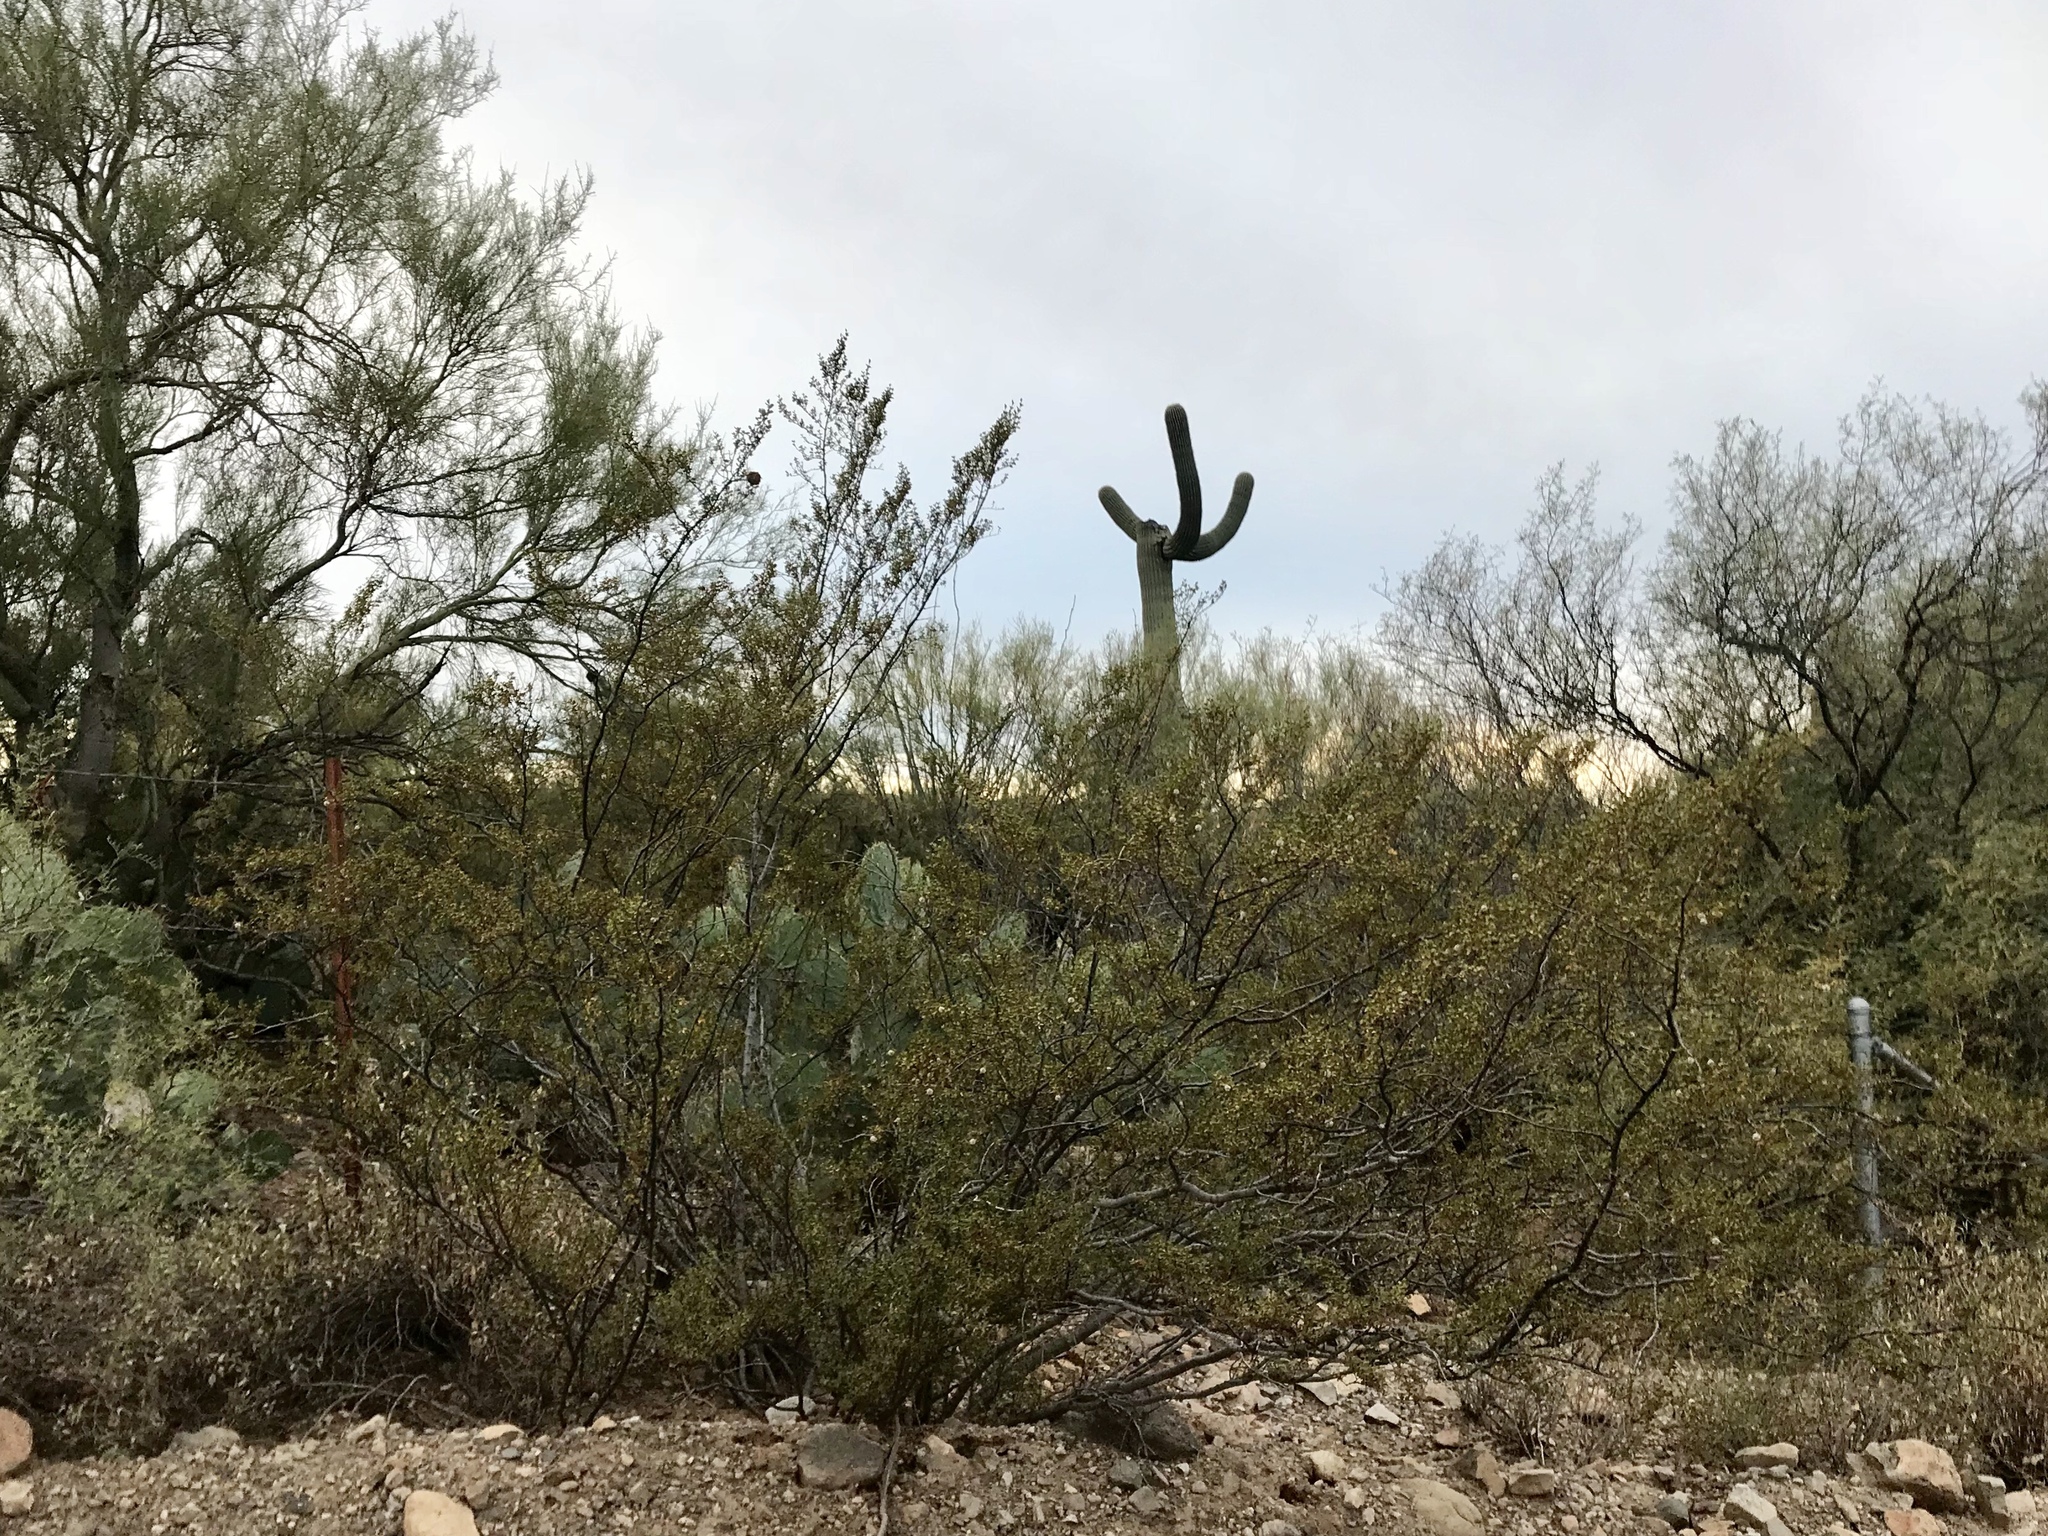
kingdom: Plantae
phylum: Tracheophyta
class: Magnoliopsida
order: Zygophyllales
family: Zygophyllaceae
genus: Larrea
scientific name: Larrea tridentata
